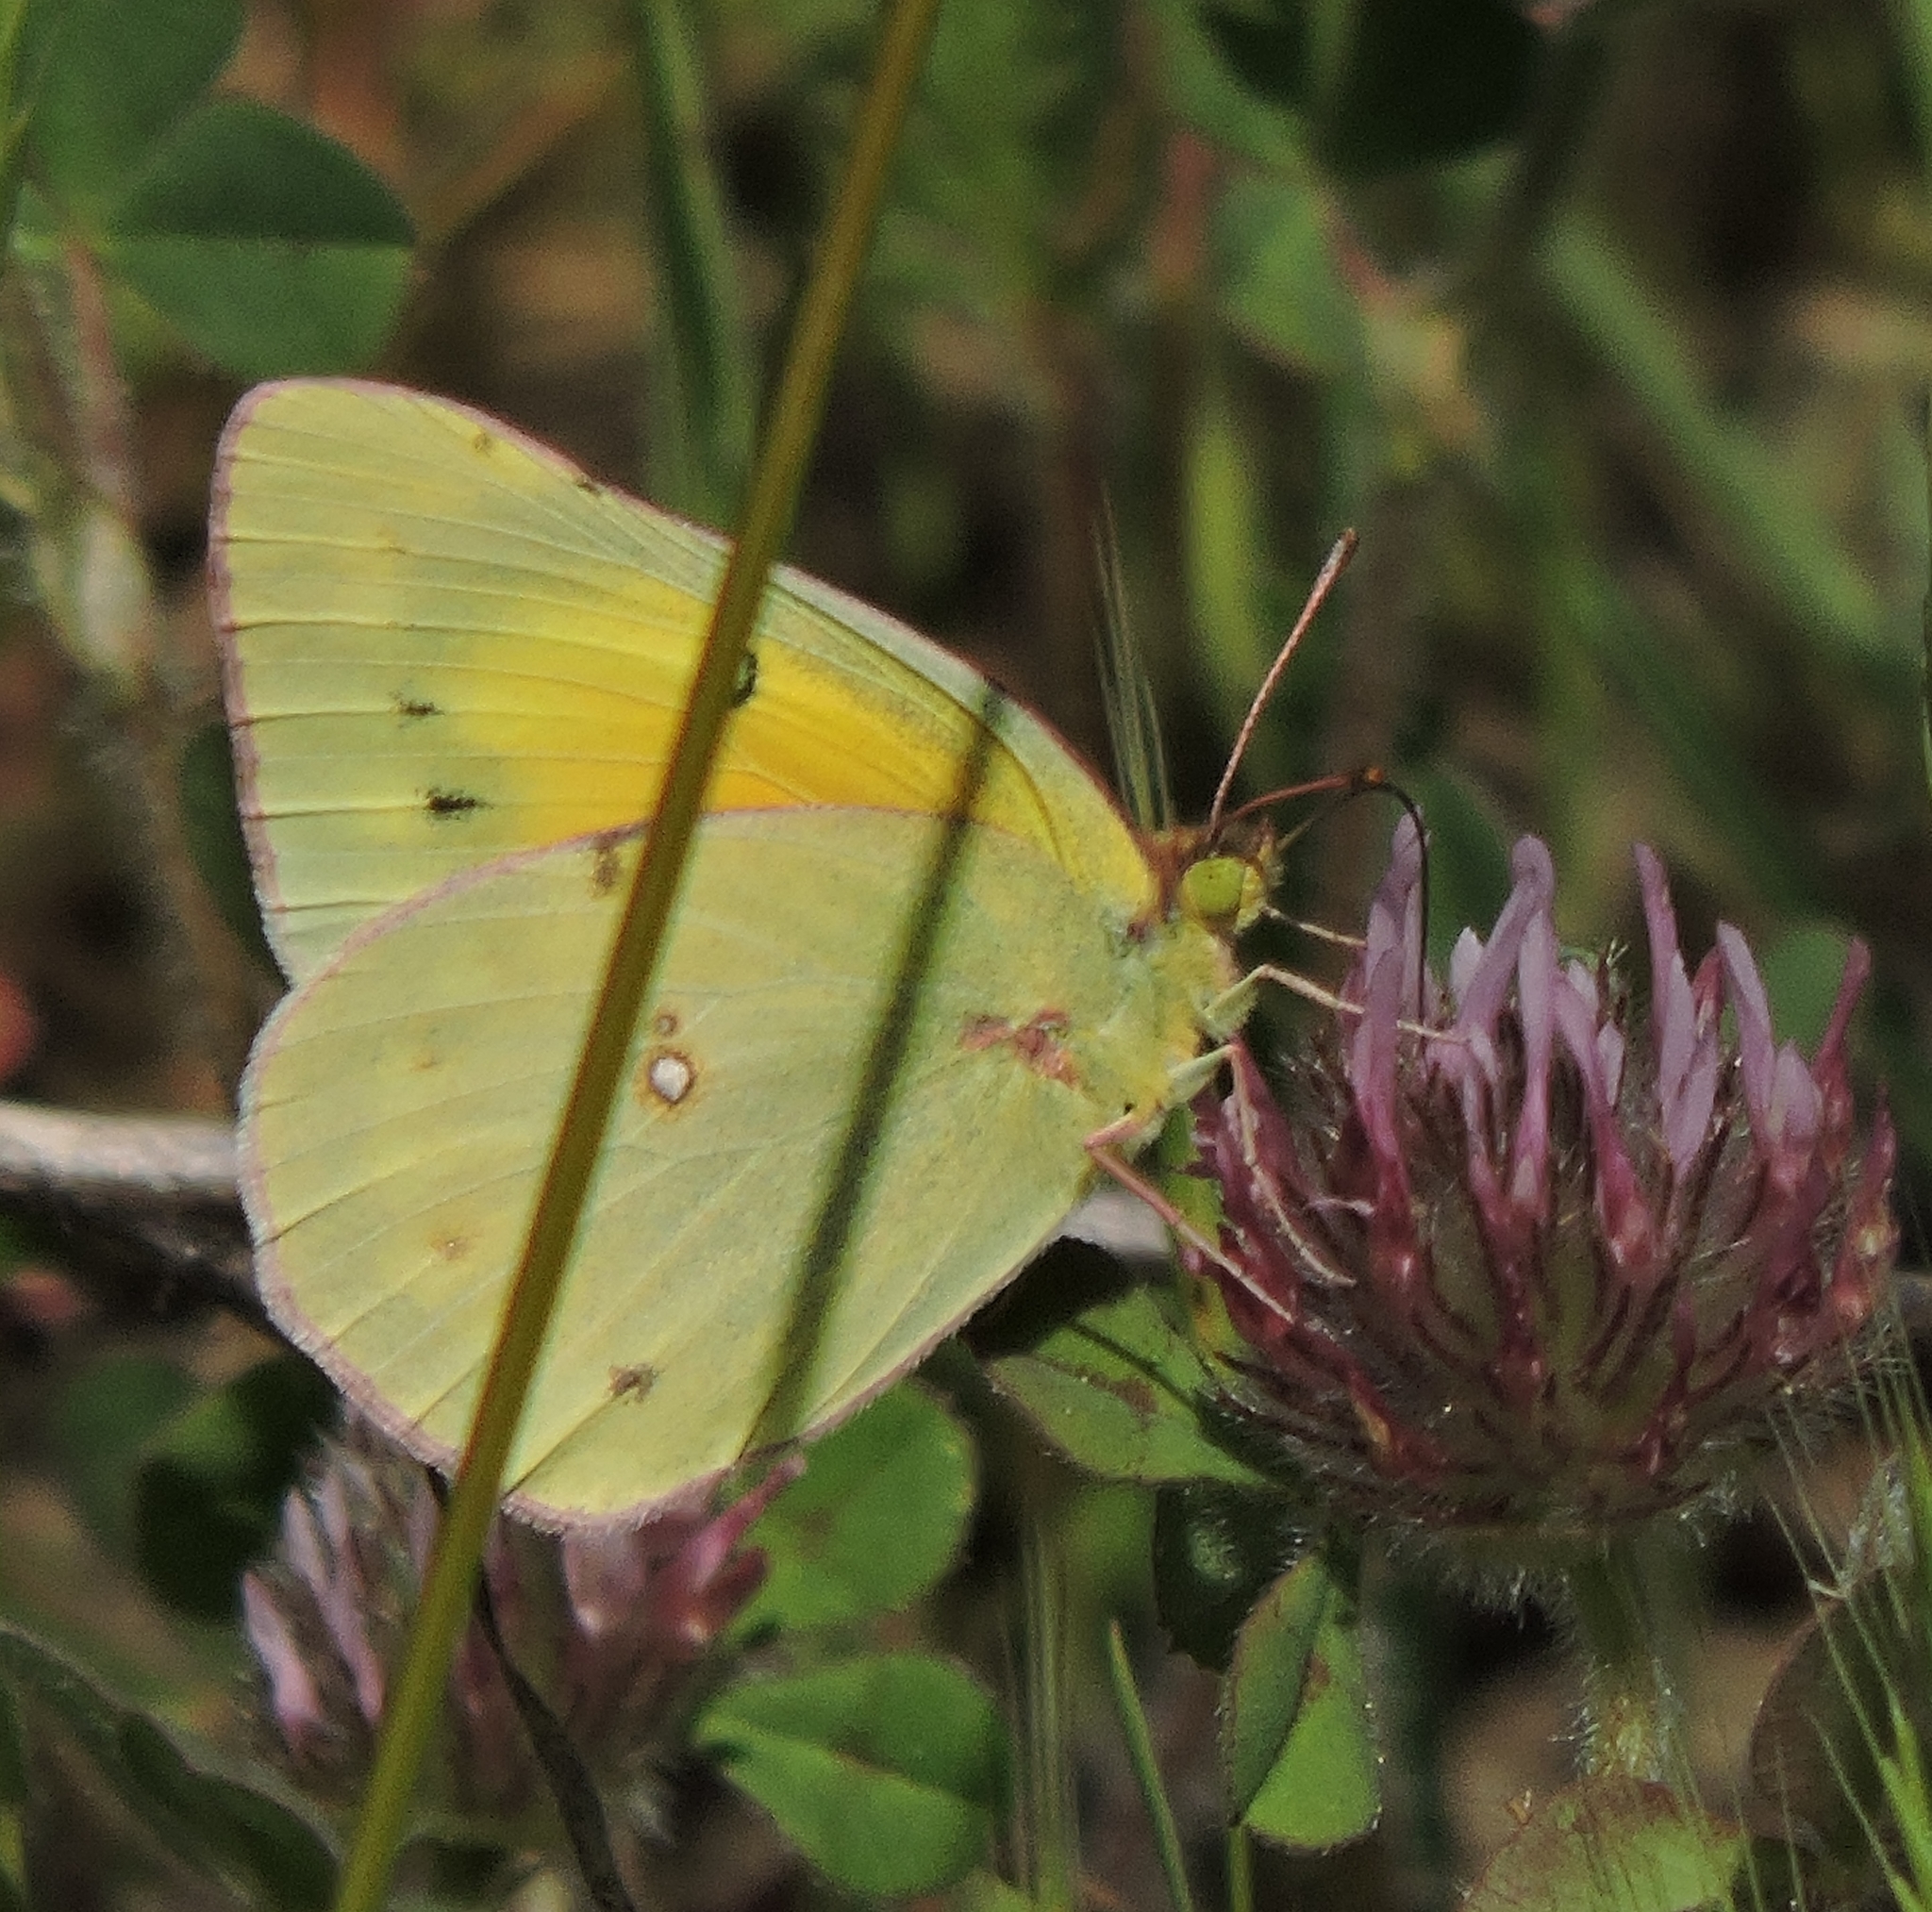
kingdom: Animalia
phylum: Arthropoda
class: Insecta
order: Lepidoptera
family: Pieridae
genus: Colias
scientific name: Colias eurytheme
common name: Alfalfa butterfly
